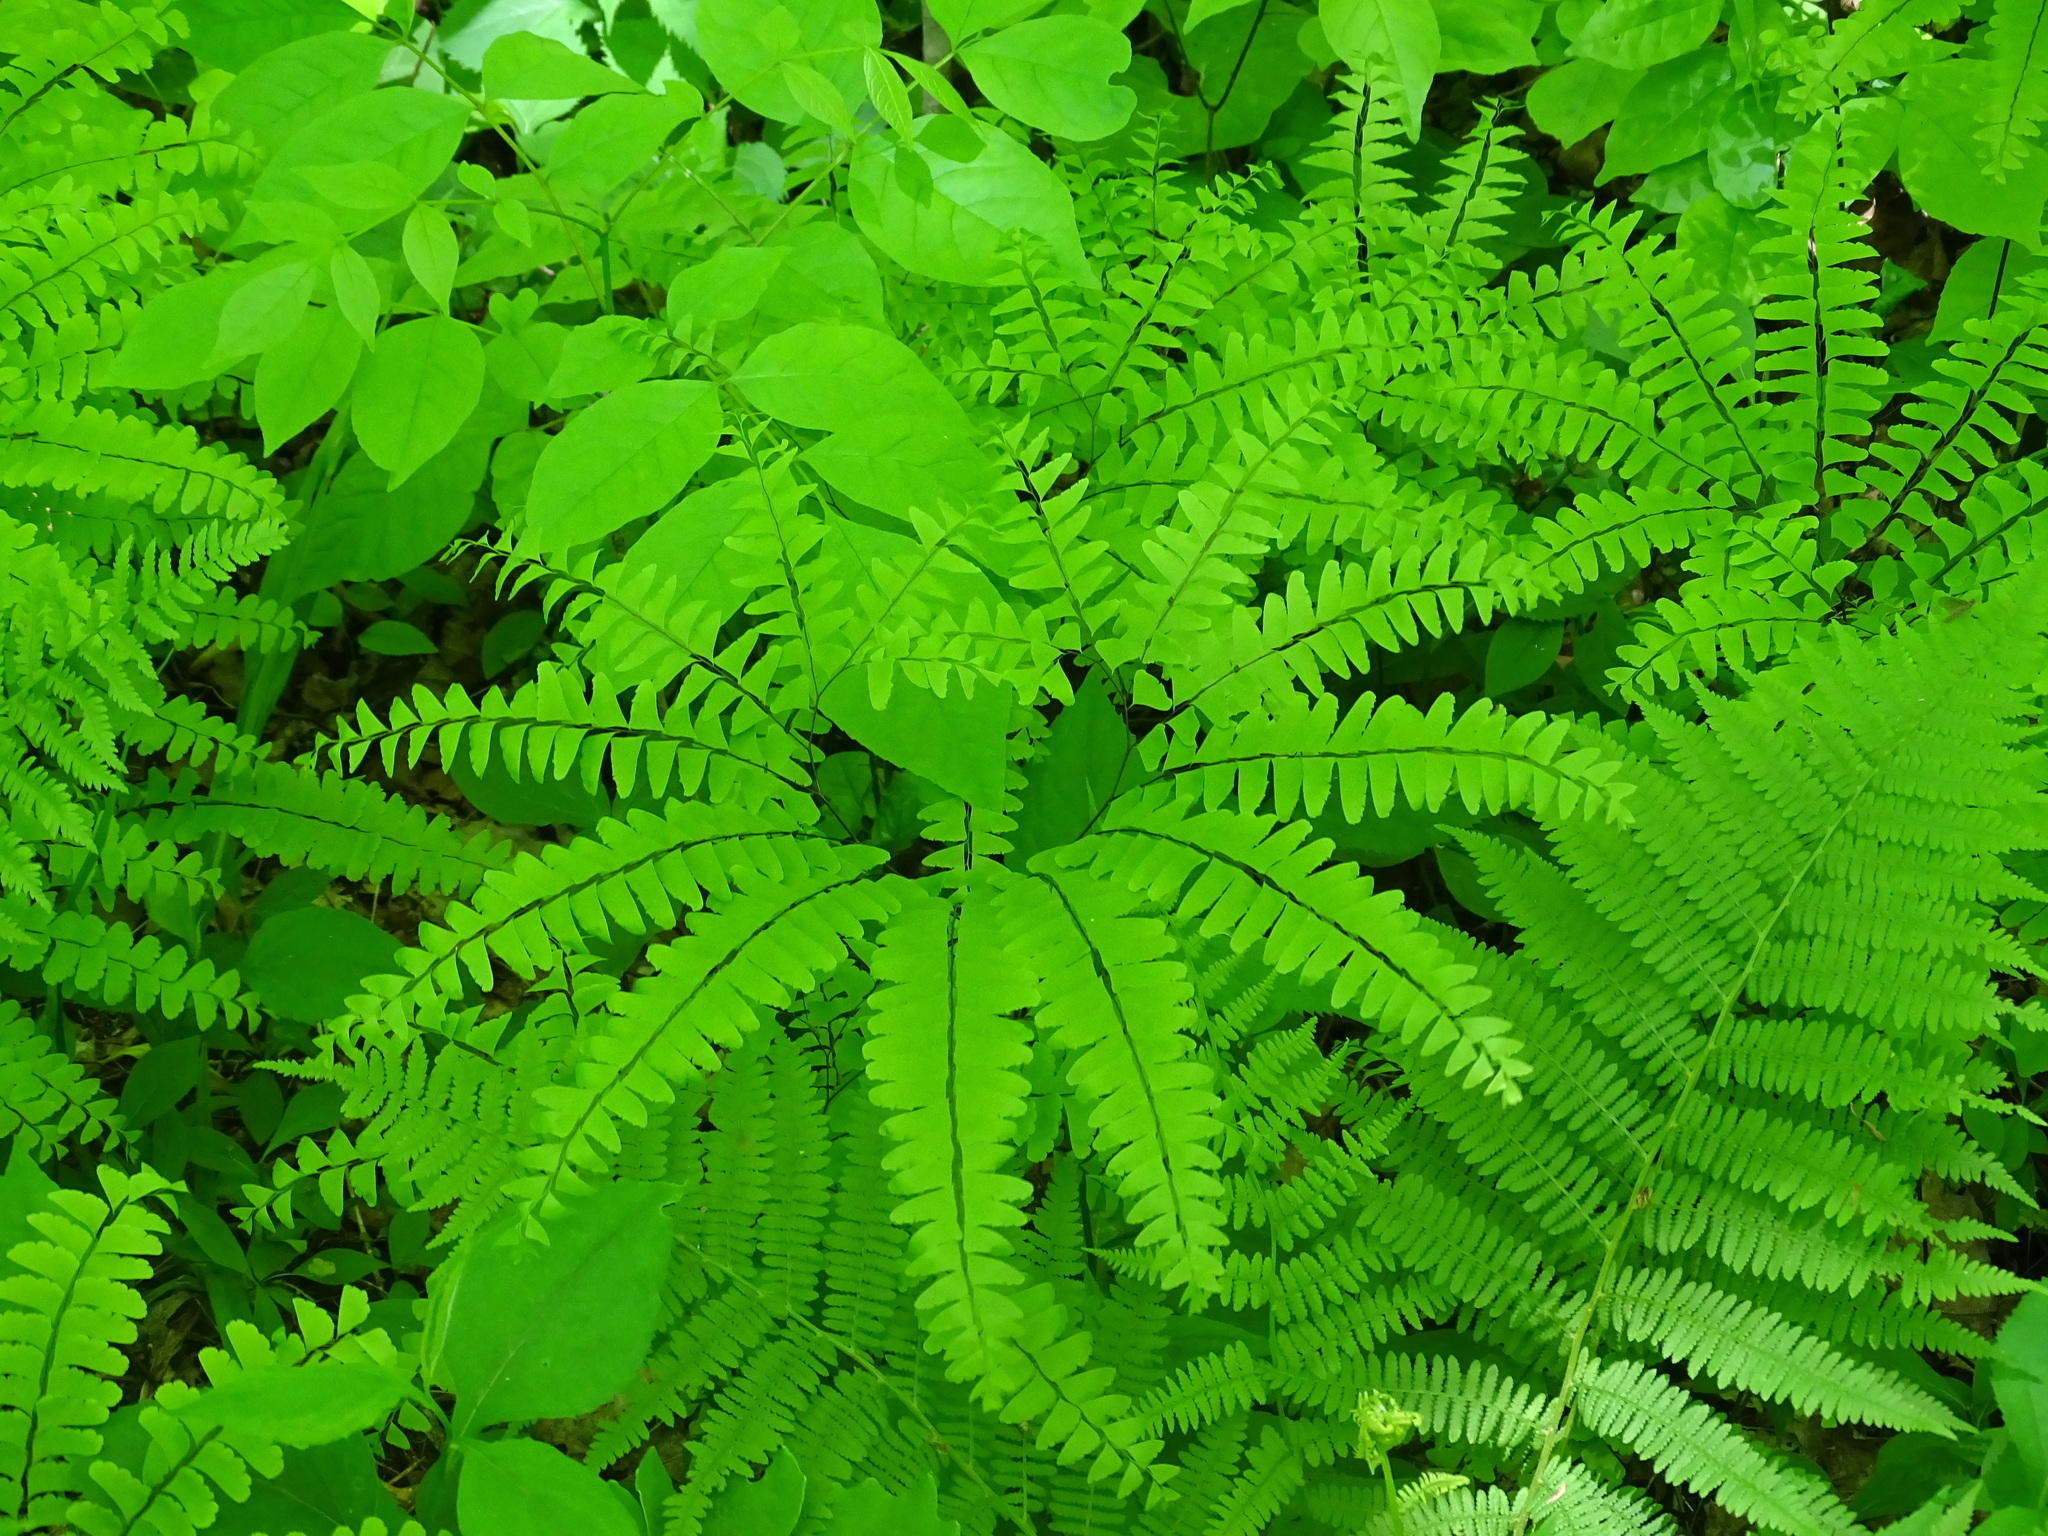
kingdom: Plantae
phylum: Tracheophyta
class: Polypodiopsida
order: Polypodiales
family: Pteridaceae
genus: Adiantum
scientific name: Adiantum pedatum
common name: Five-finger fern
